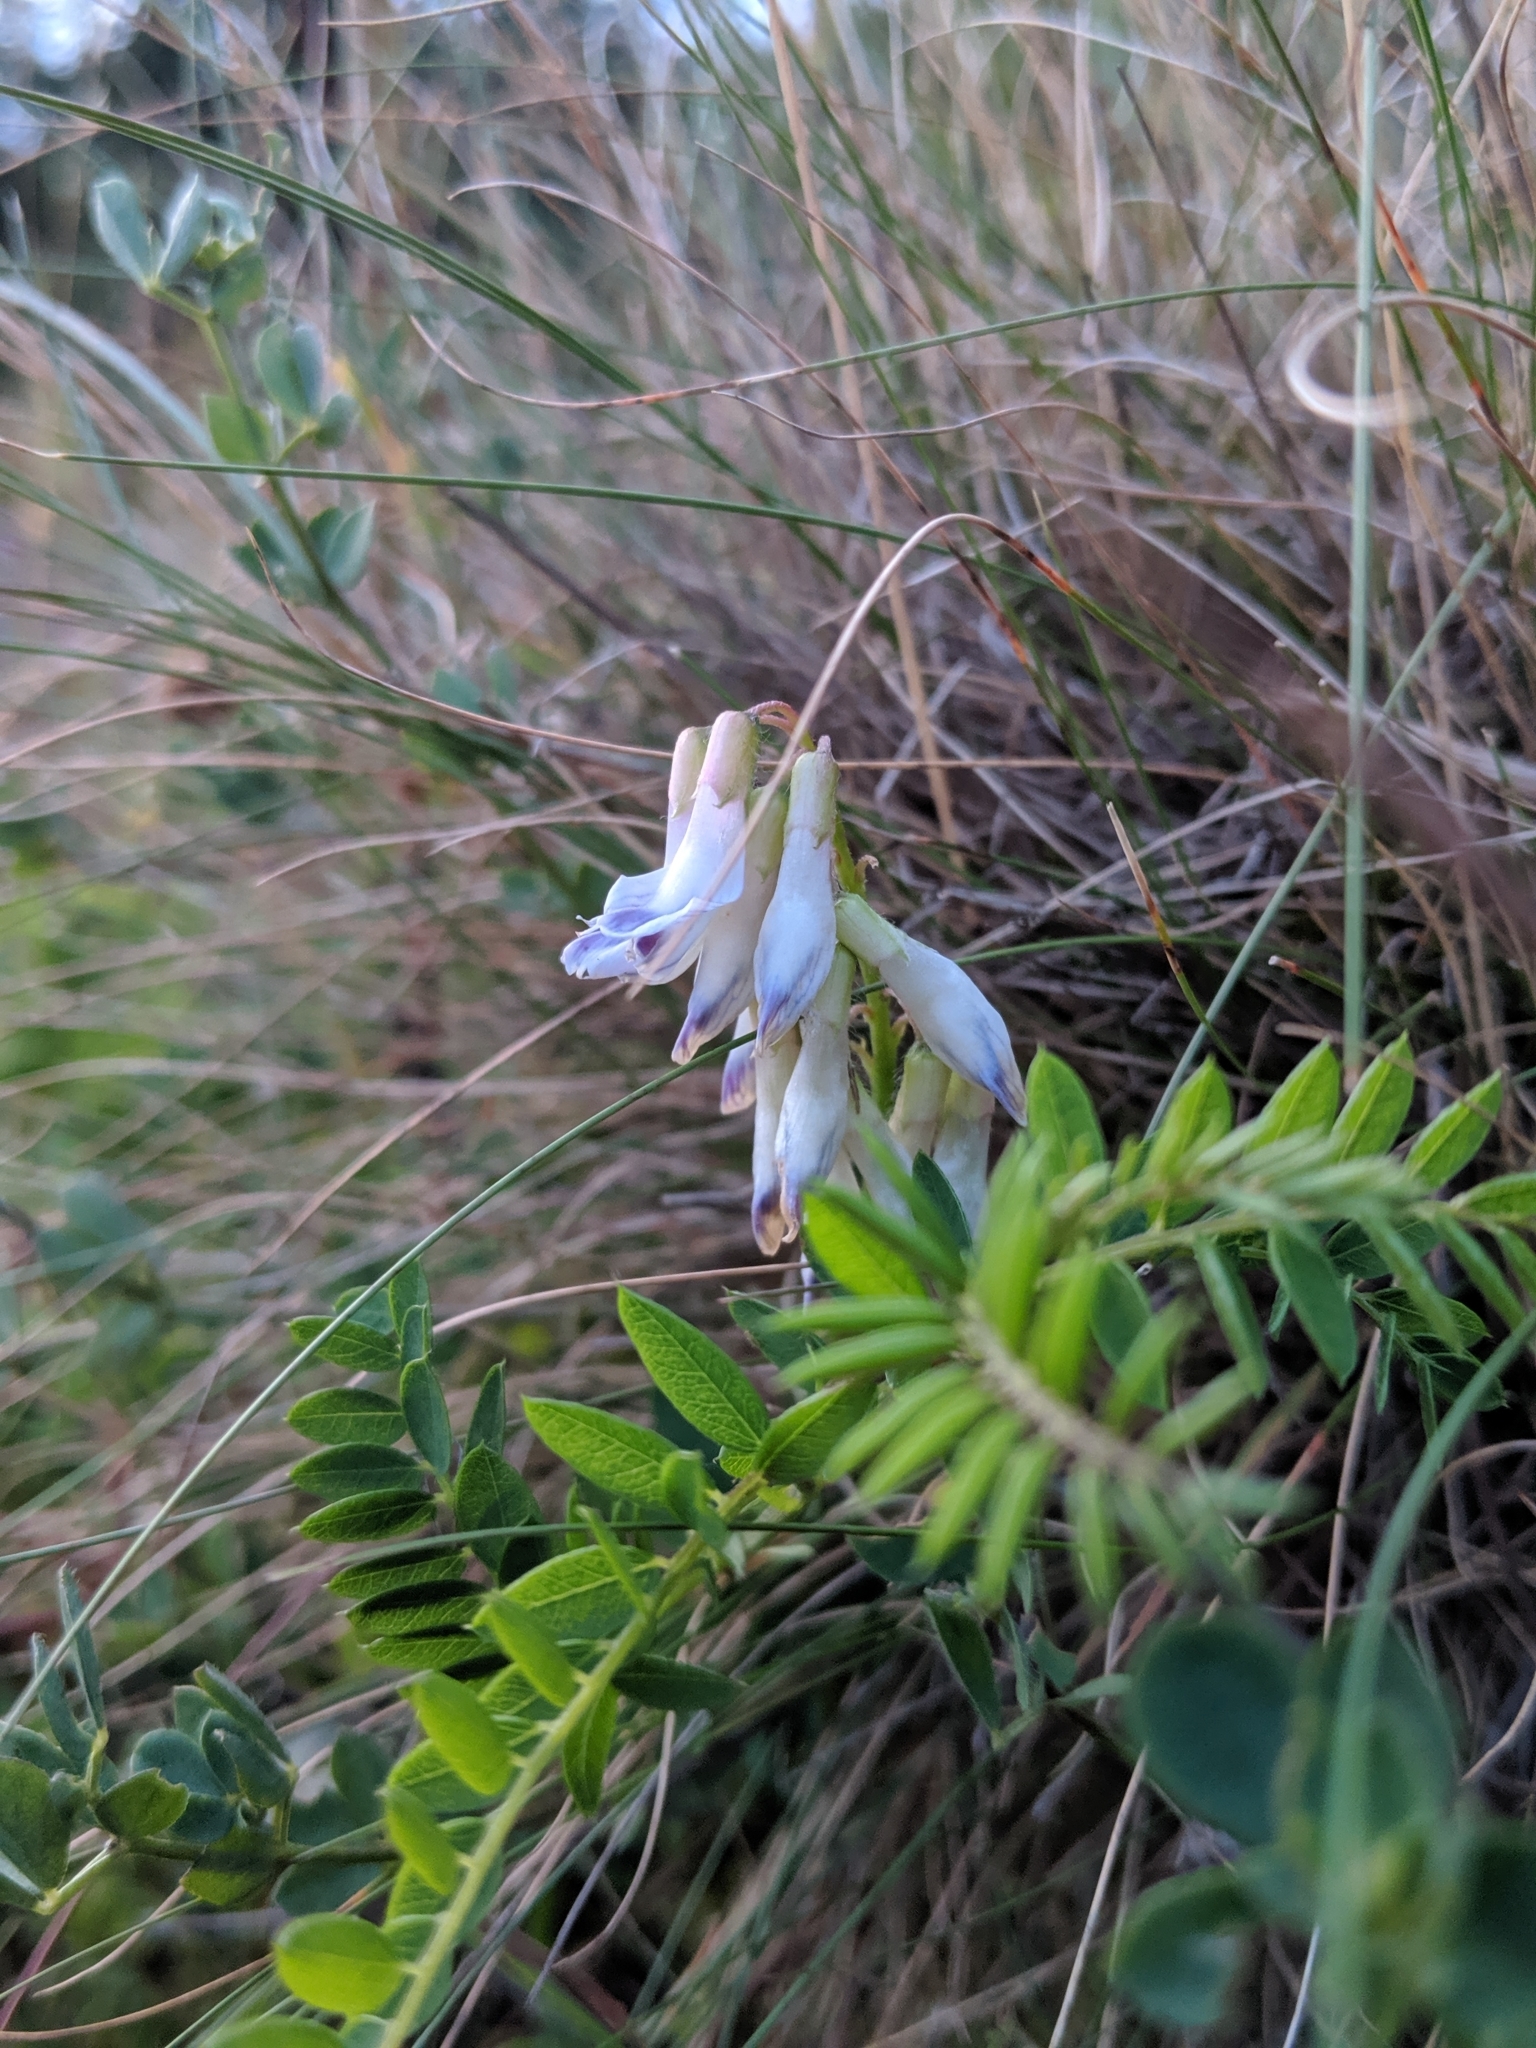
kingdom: Plantae
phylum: Tracheophyta
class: Magnoliopsida
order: Fabales
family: Fabaceae
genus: Vicia
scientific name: Vicia orobus
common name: Wood bitter-vetch
